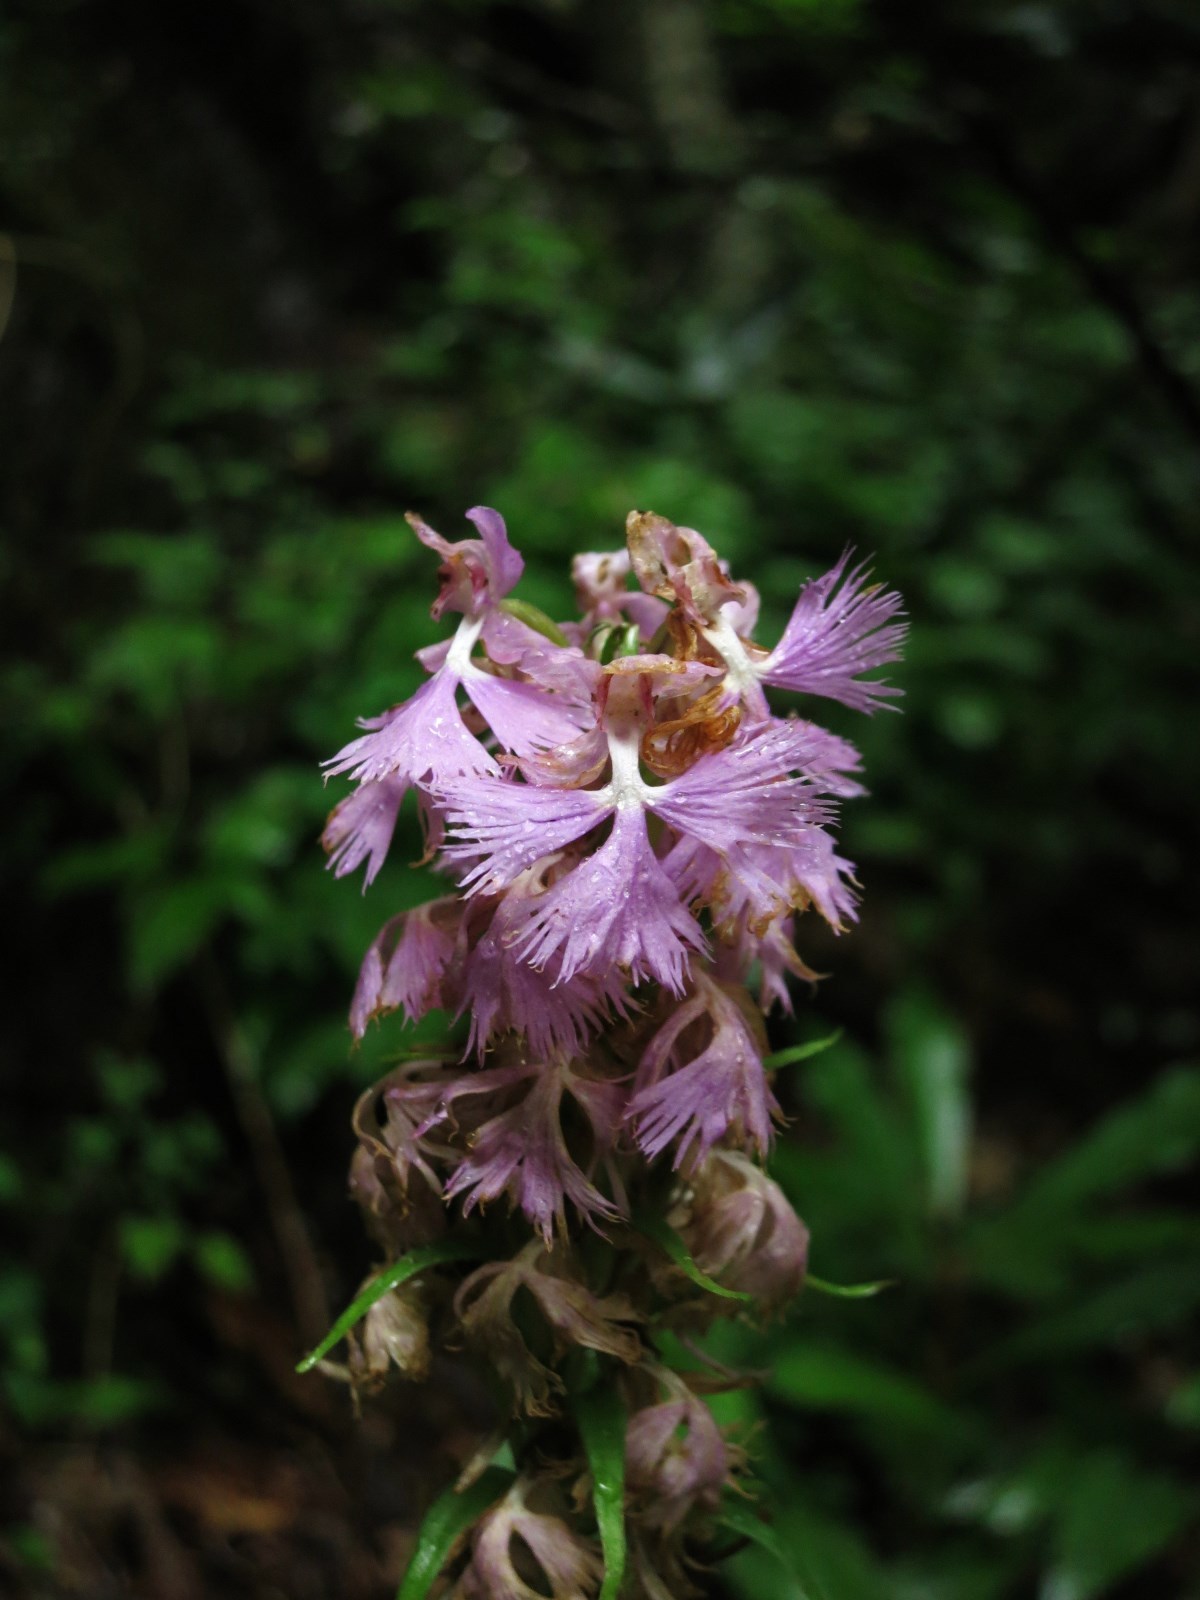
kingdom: Plantae
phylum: Tracheophyta
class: Liliopsida
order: Asparagales
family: Orchidaceae
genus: Platanthera
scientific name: Platanthera grandiflora
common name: Greater purple fringed orchid
